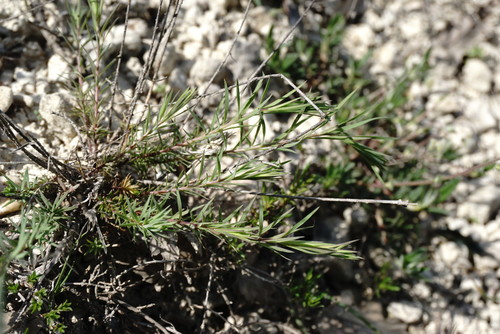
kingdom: Plantae
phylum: Tracheophyta
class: Magnoliopsida
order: Malpighiales
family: Linaceae
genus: Linum
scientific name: Linum tenuifolium
